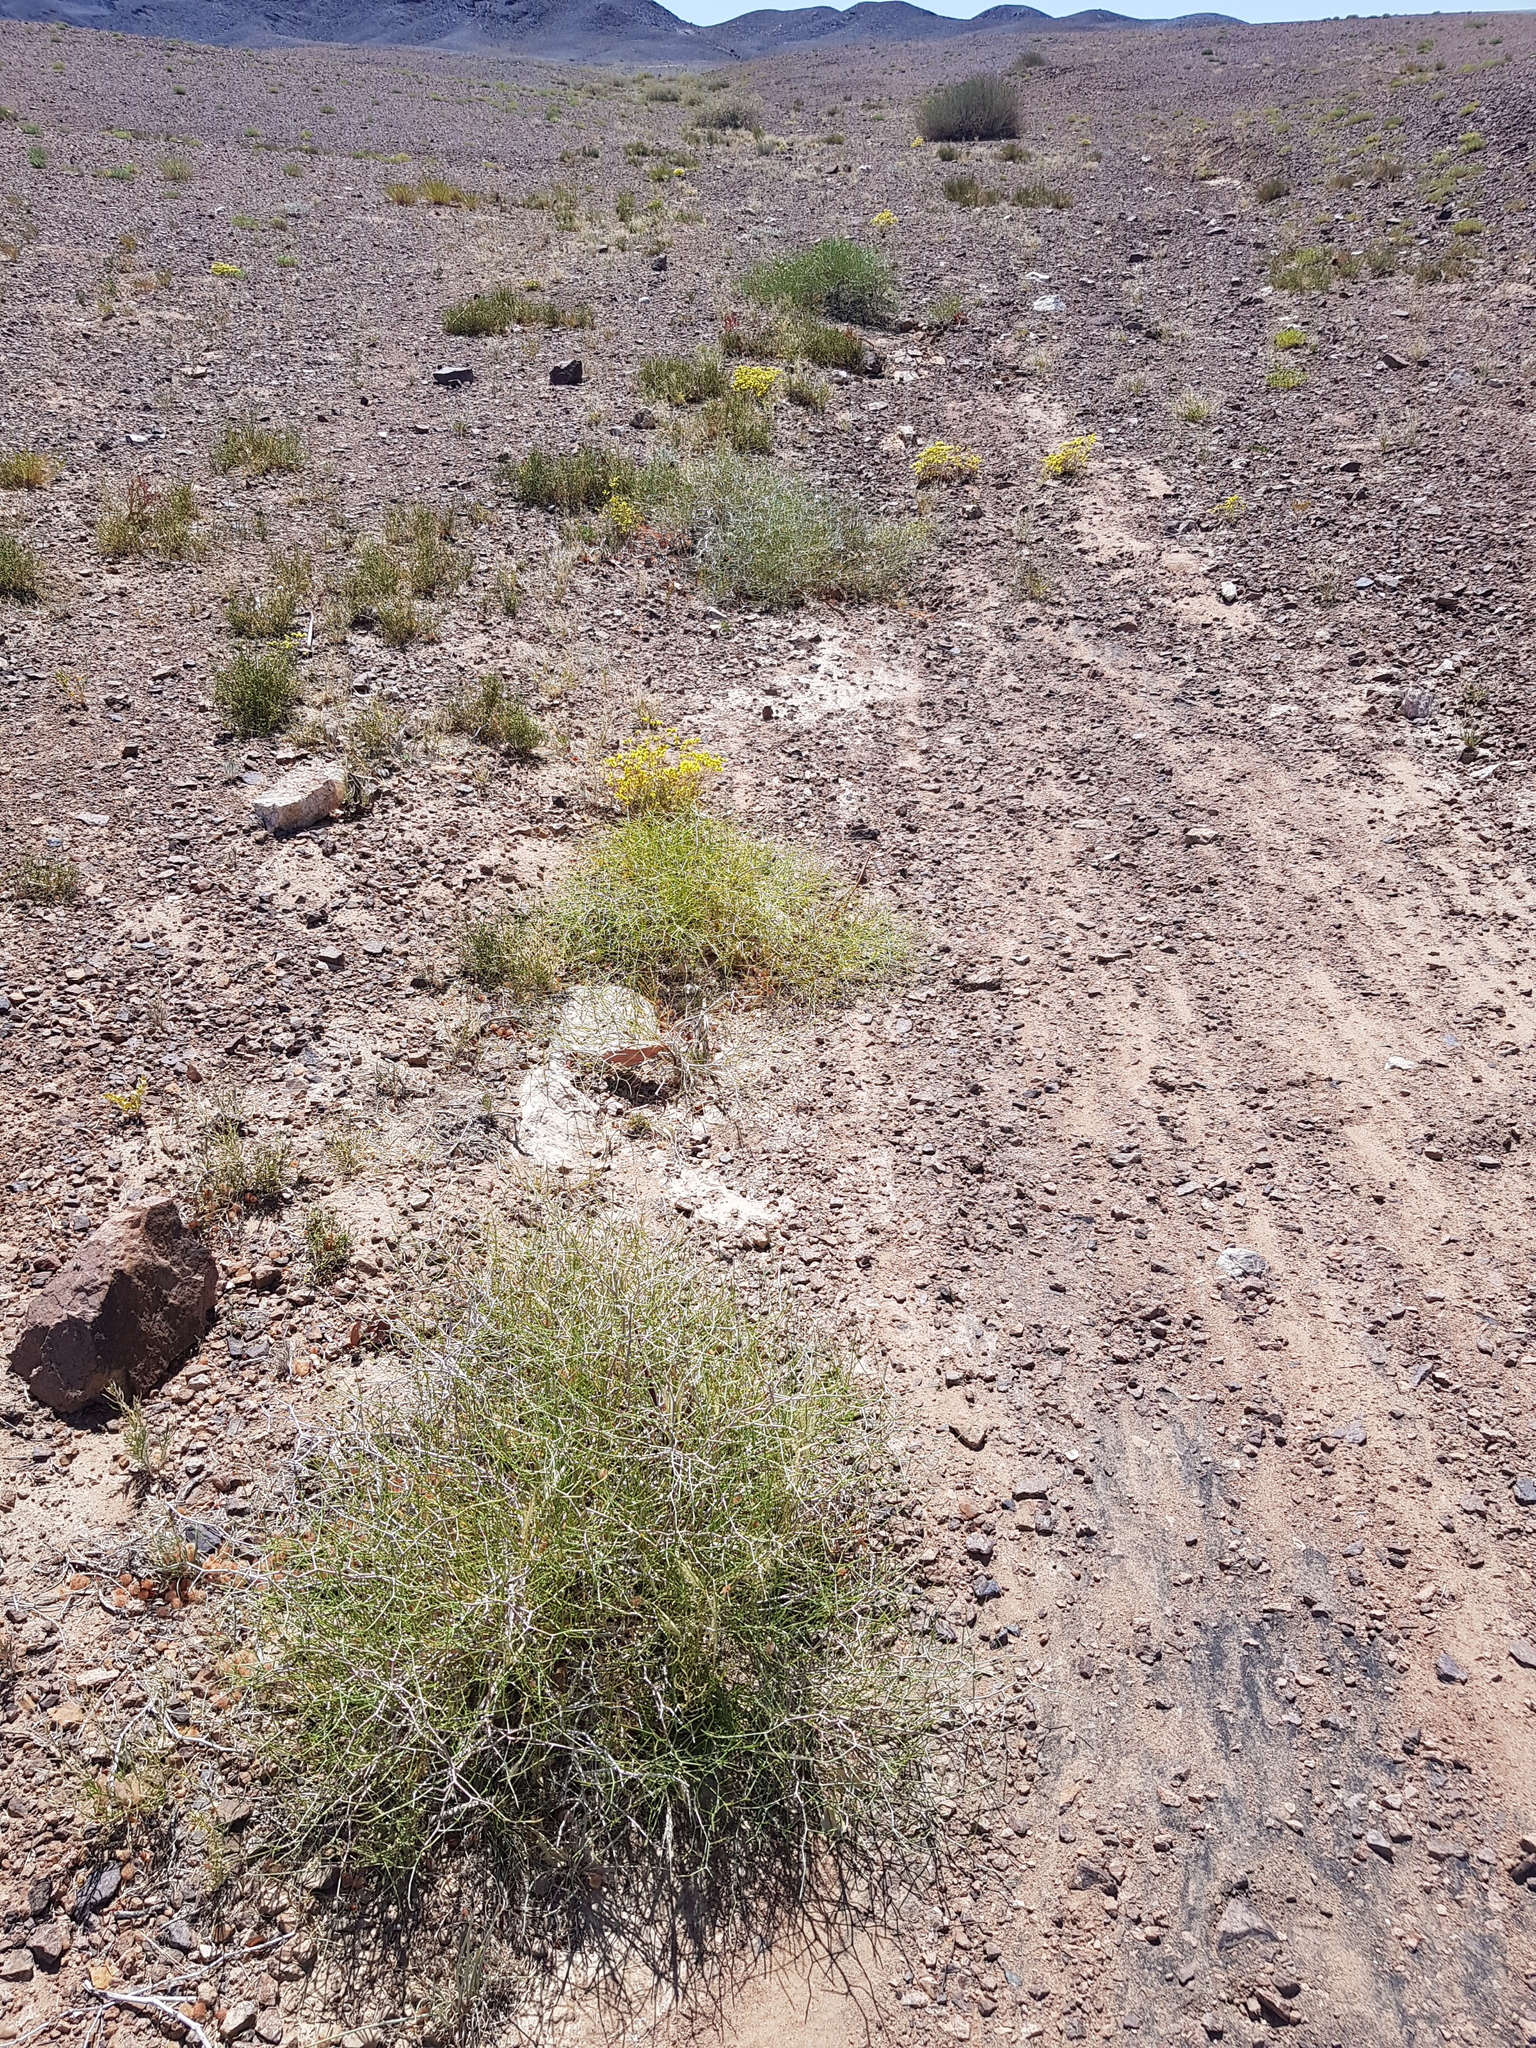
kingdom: Plantae
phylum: Tracheophyta
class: Magnoliopsida
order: Caryophyllales
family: Polygonaceae
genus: Calligonum
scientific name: Calligonum mongolicum
